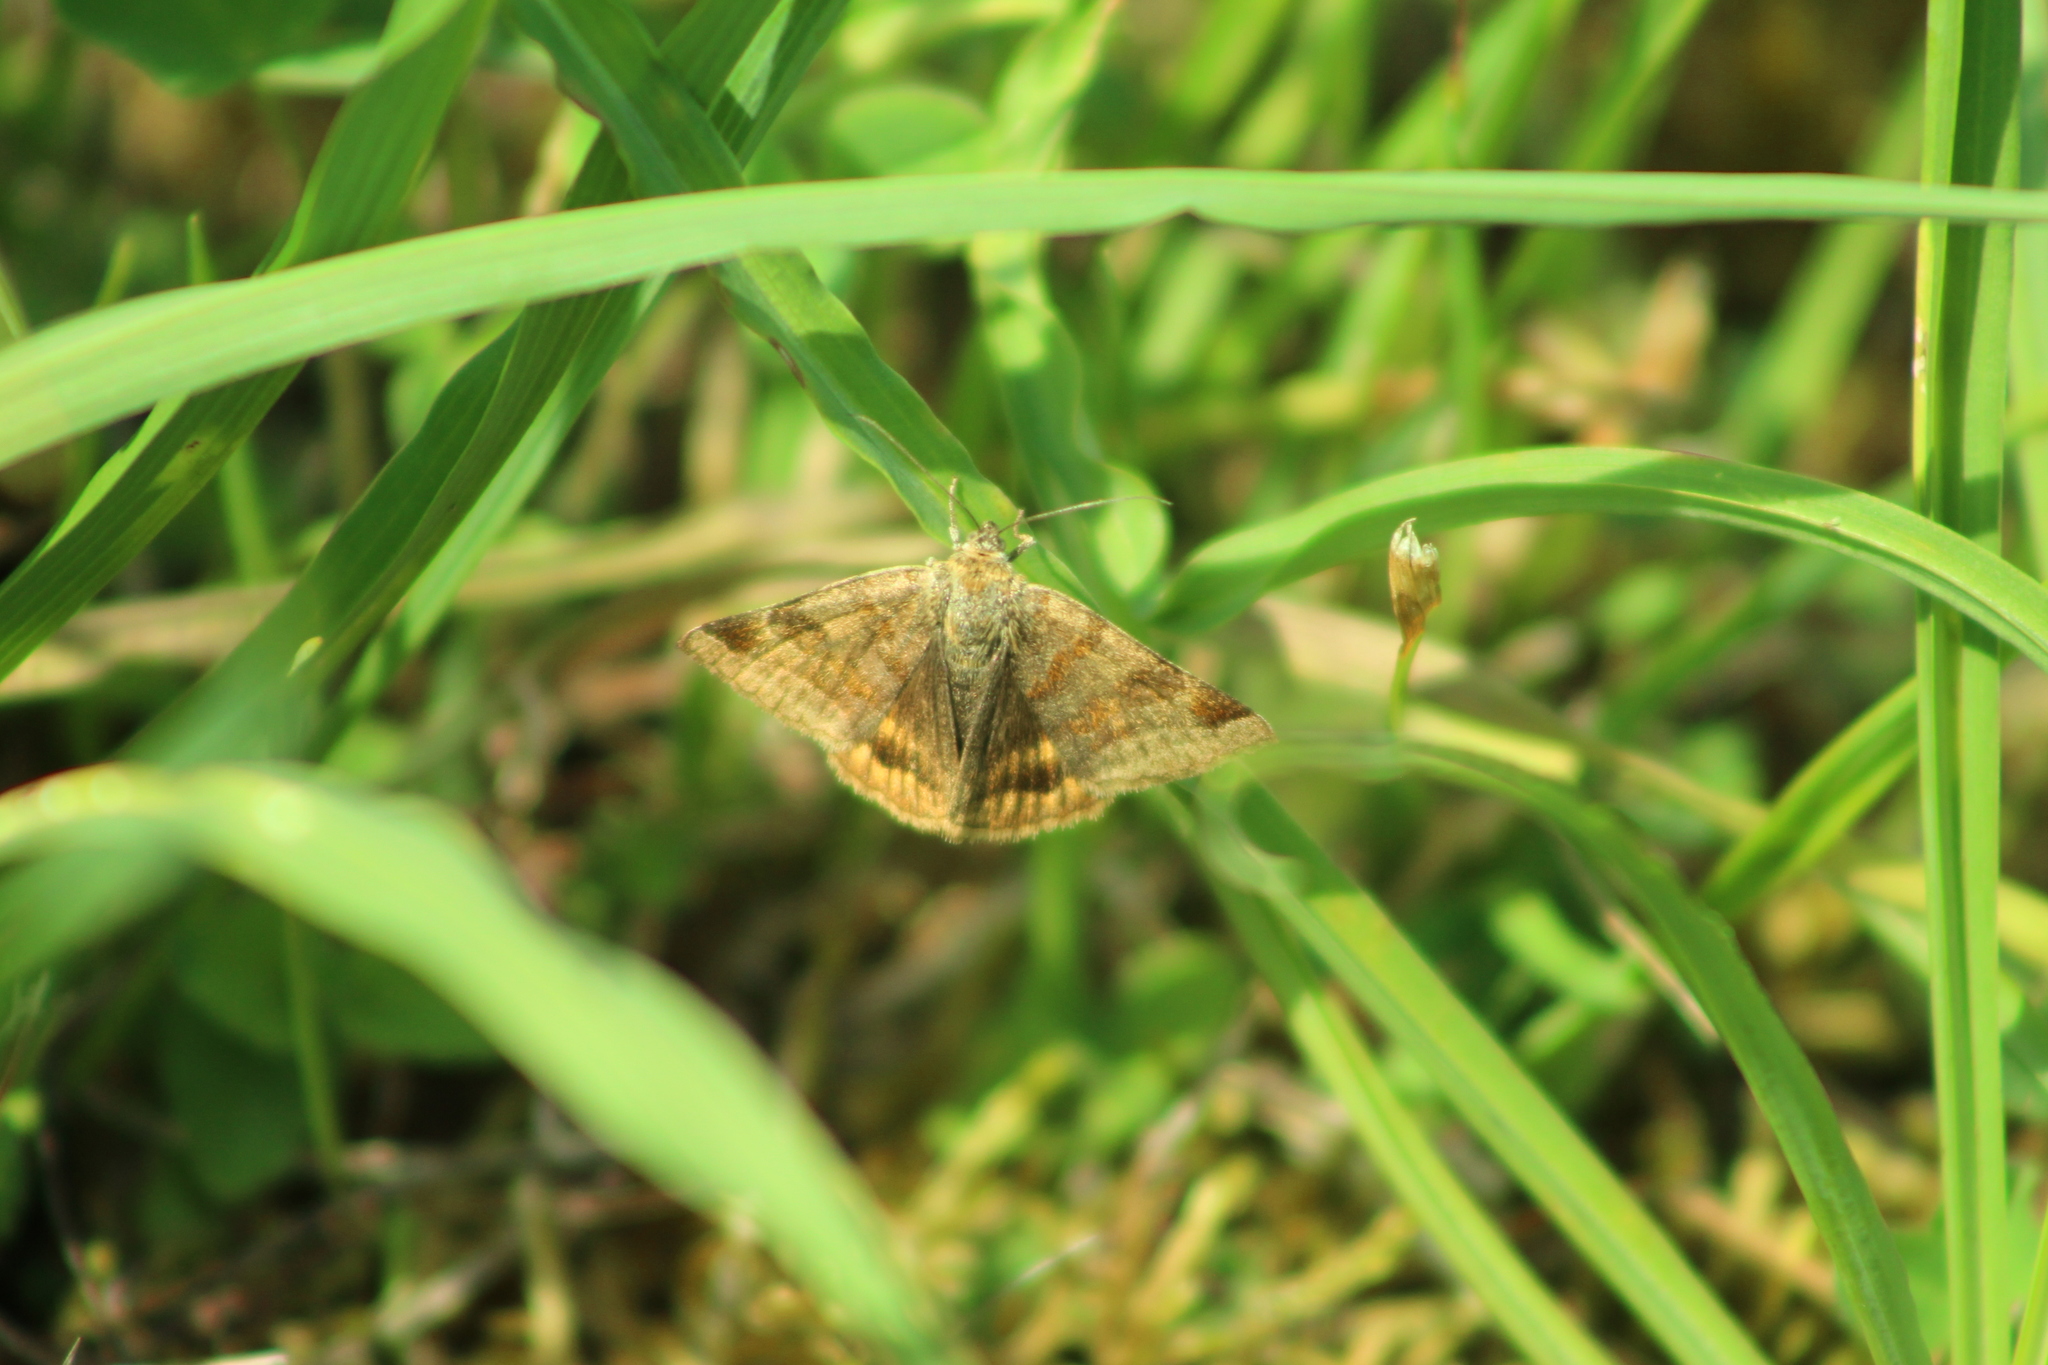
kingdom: Animalia
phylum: Arthropoda
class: Insecta
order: Lepidoptera
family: Erebidae
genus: Euclidia
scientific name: Euclidia glyphica
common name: Burnet companion
